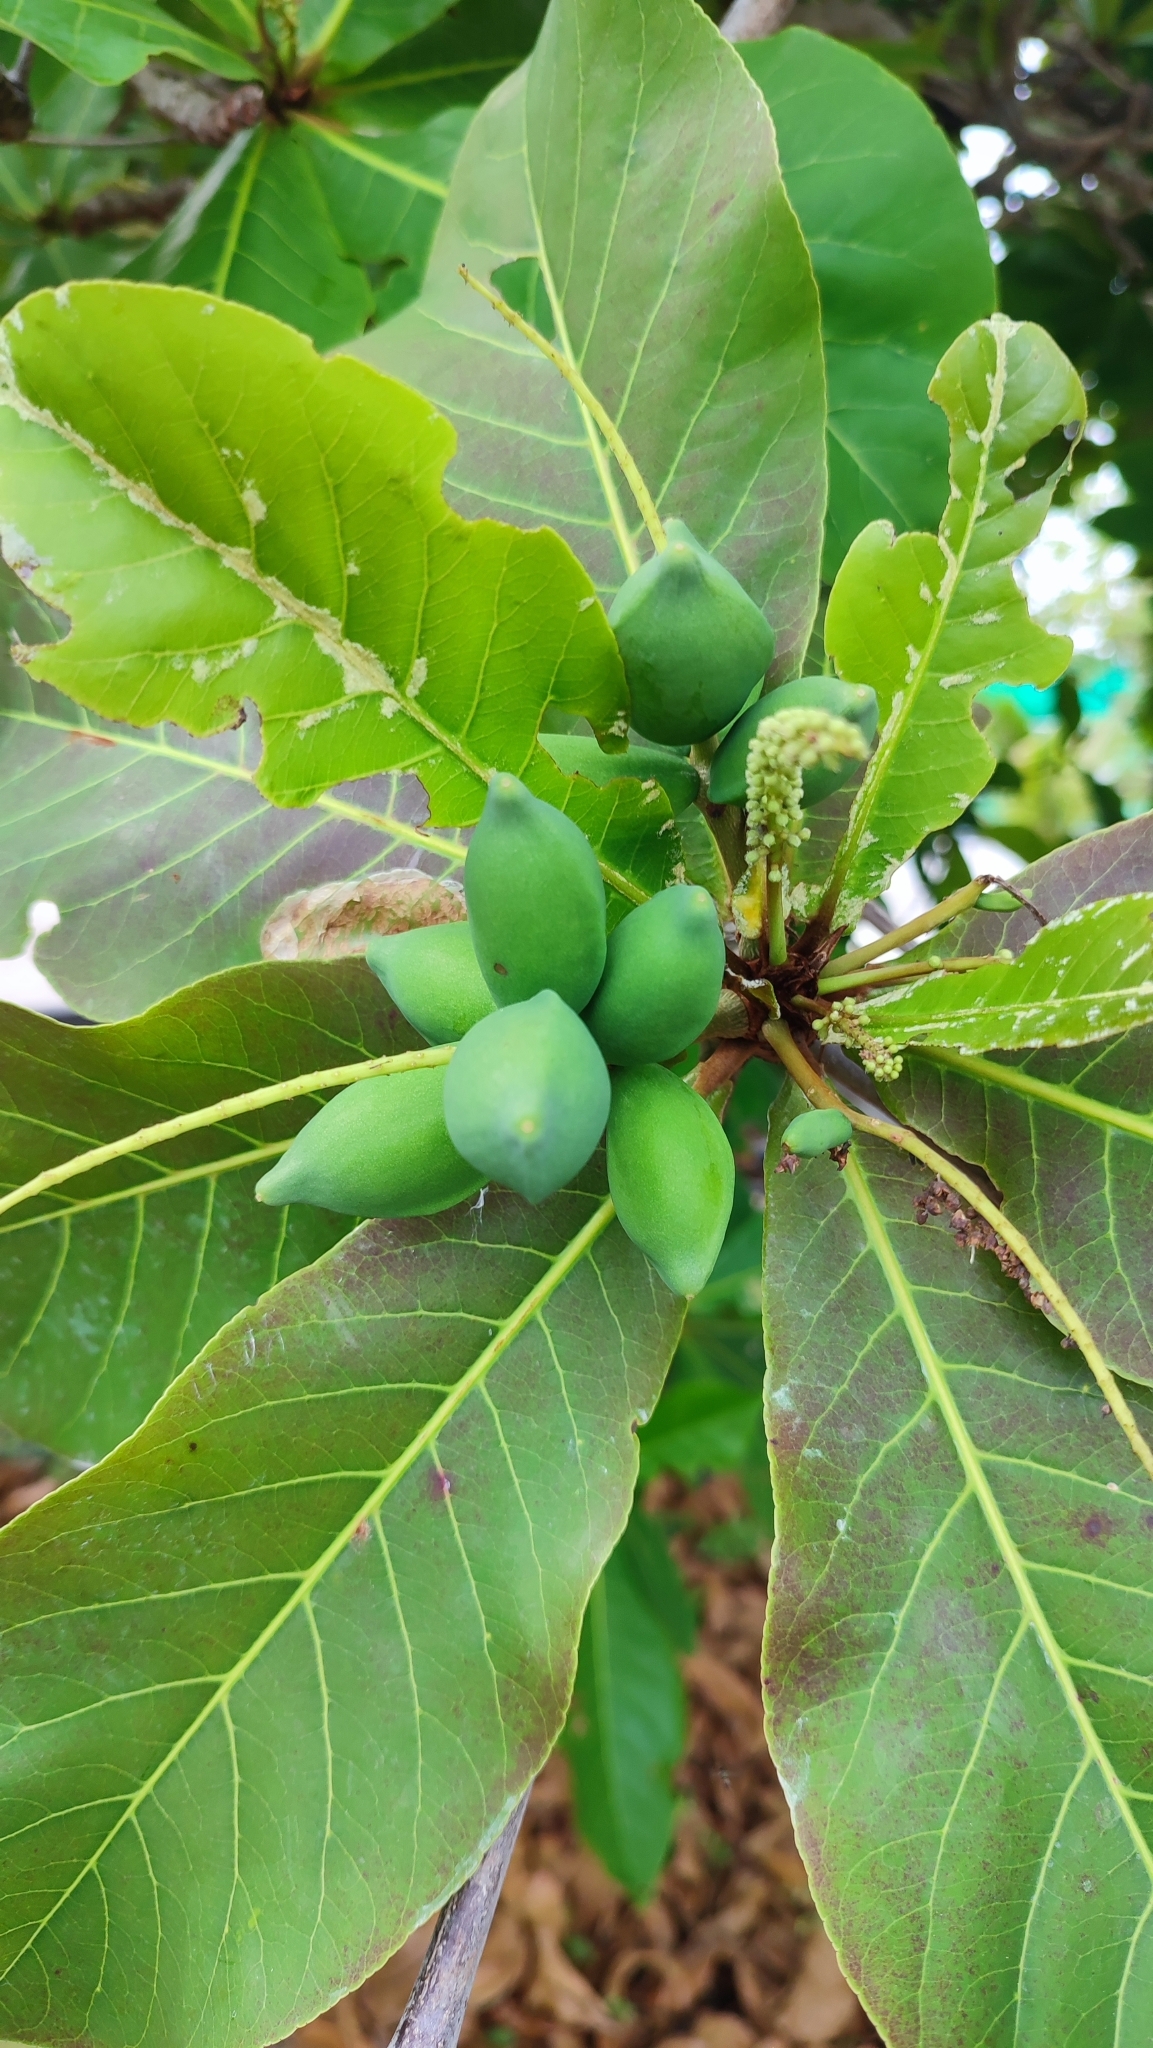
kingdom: Plantae
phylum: Tracheophyta
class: Magnoliopsida
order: Myrtales
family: Combretaceae
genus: Terminalia
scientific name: Terminalia catappa
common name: Tropical almond
